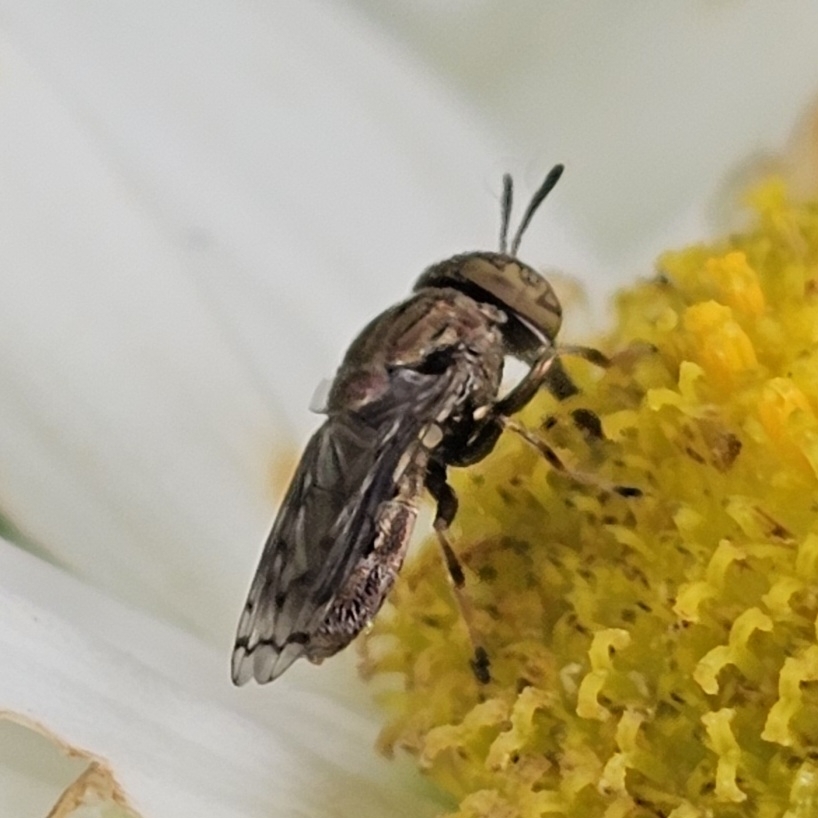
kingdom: Animalia
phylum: Arthropoda
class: Insecta
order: Diptera
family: Syrphidae
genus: Orthonevra
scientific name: Orthonevra nitida
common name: Wavy mucksucker
